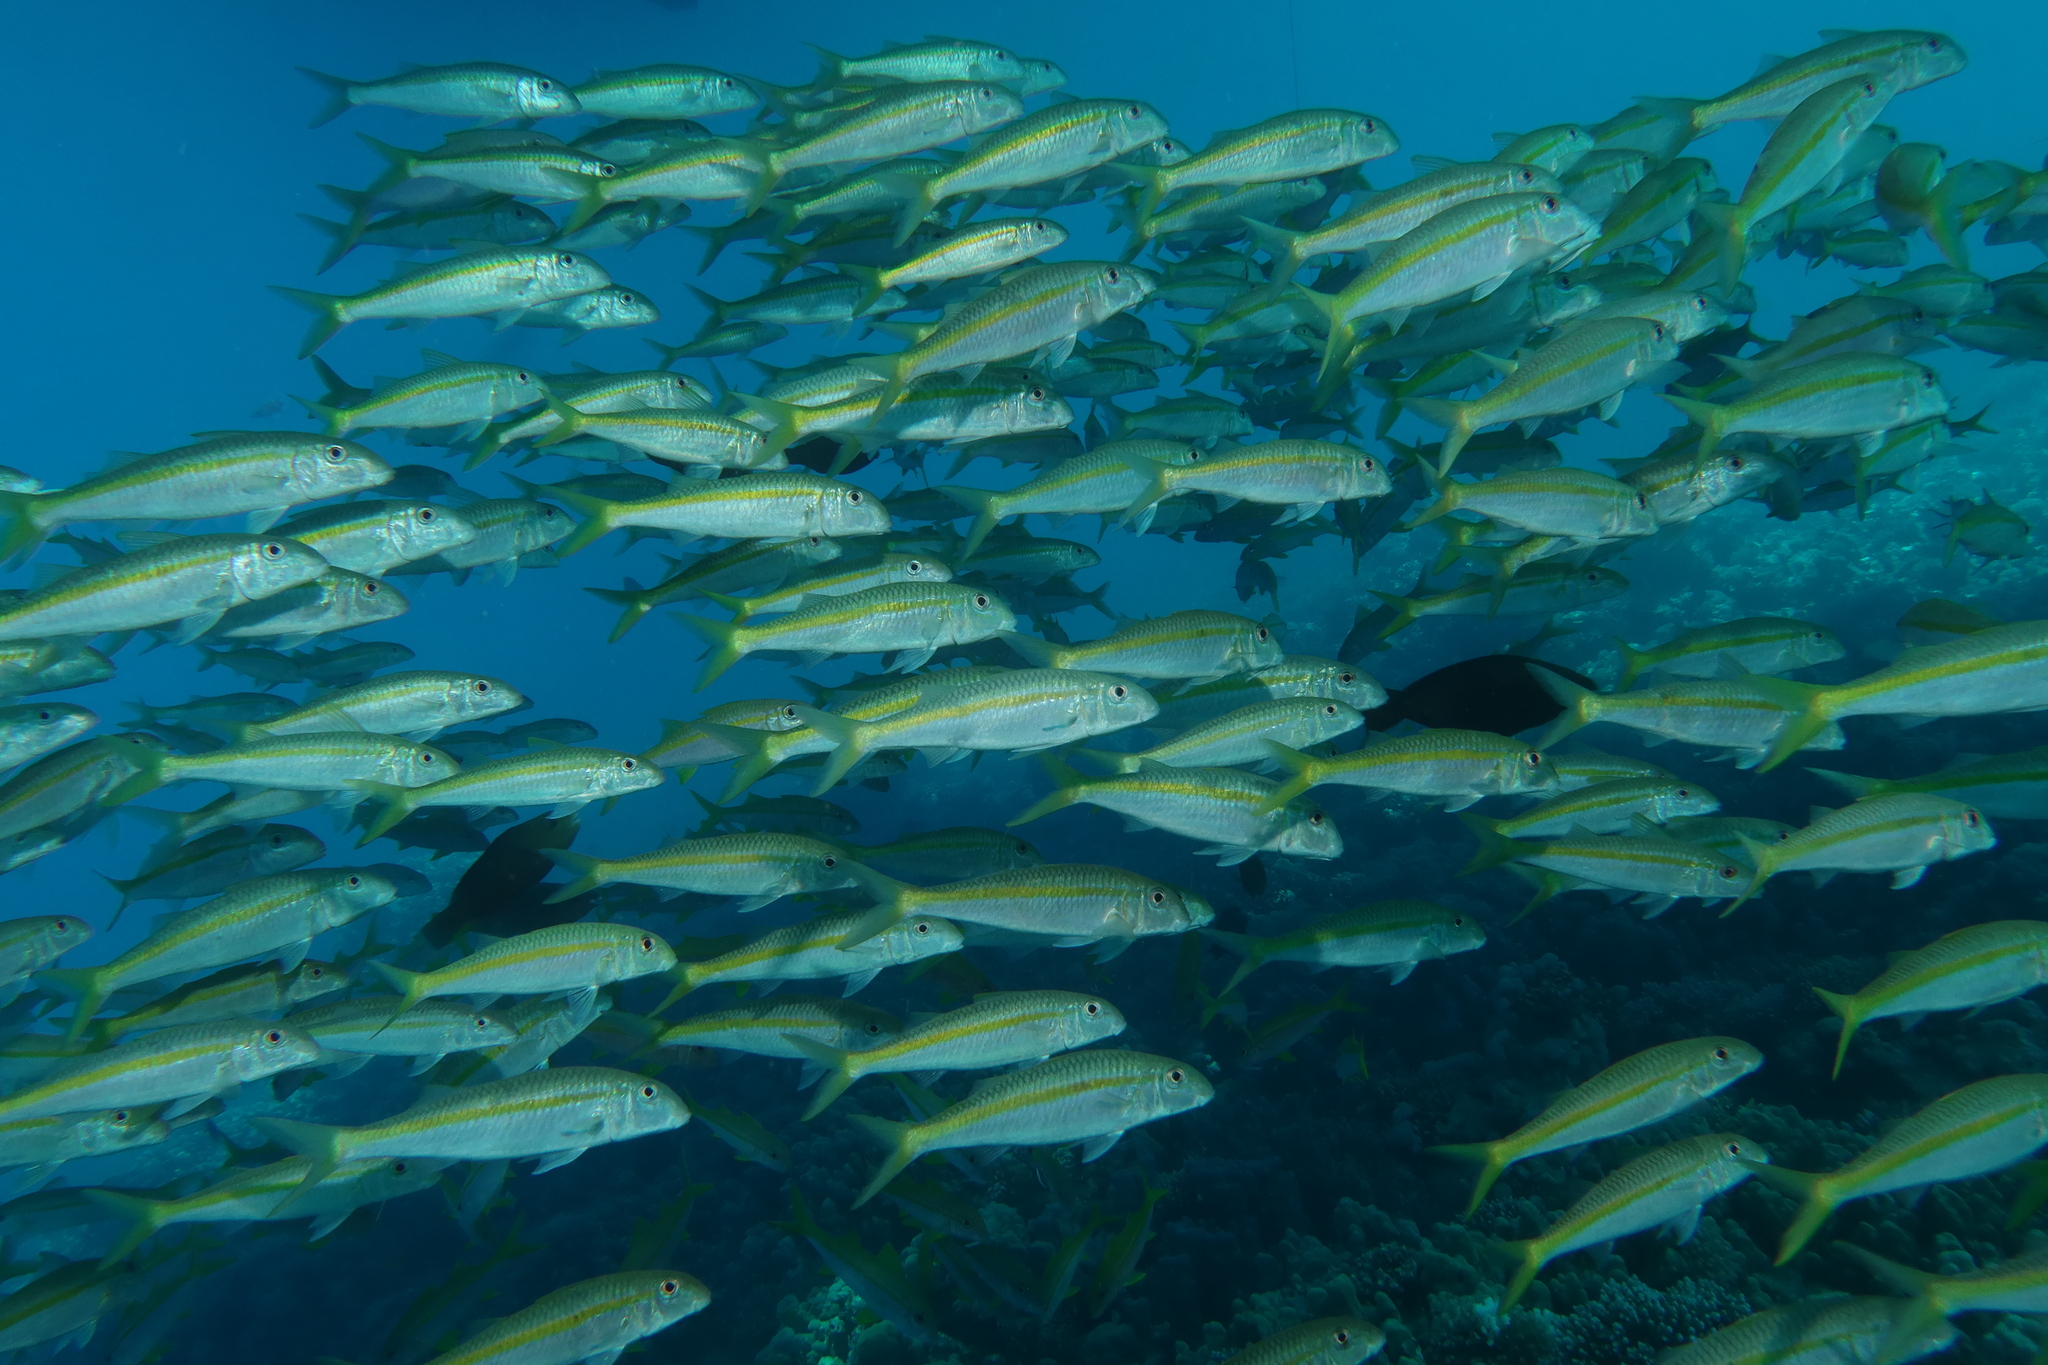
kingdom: Animalia
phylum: Chordata
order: Perciformes
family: Mullidae
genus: Mulloidichthys
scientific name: Mulloidichthys flavolineatus
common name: Yellowstripe goatfish
